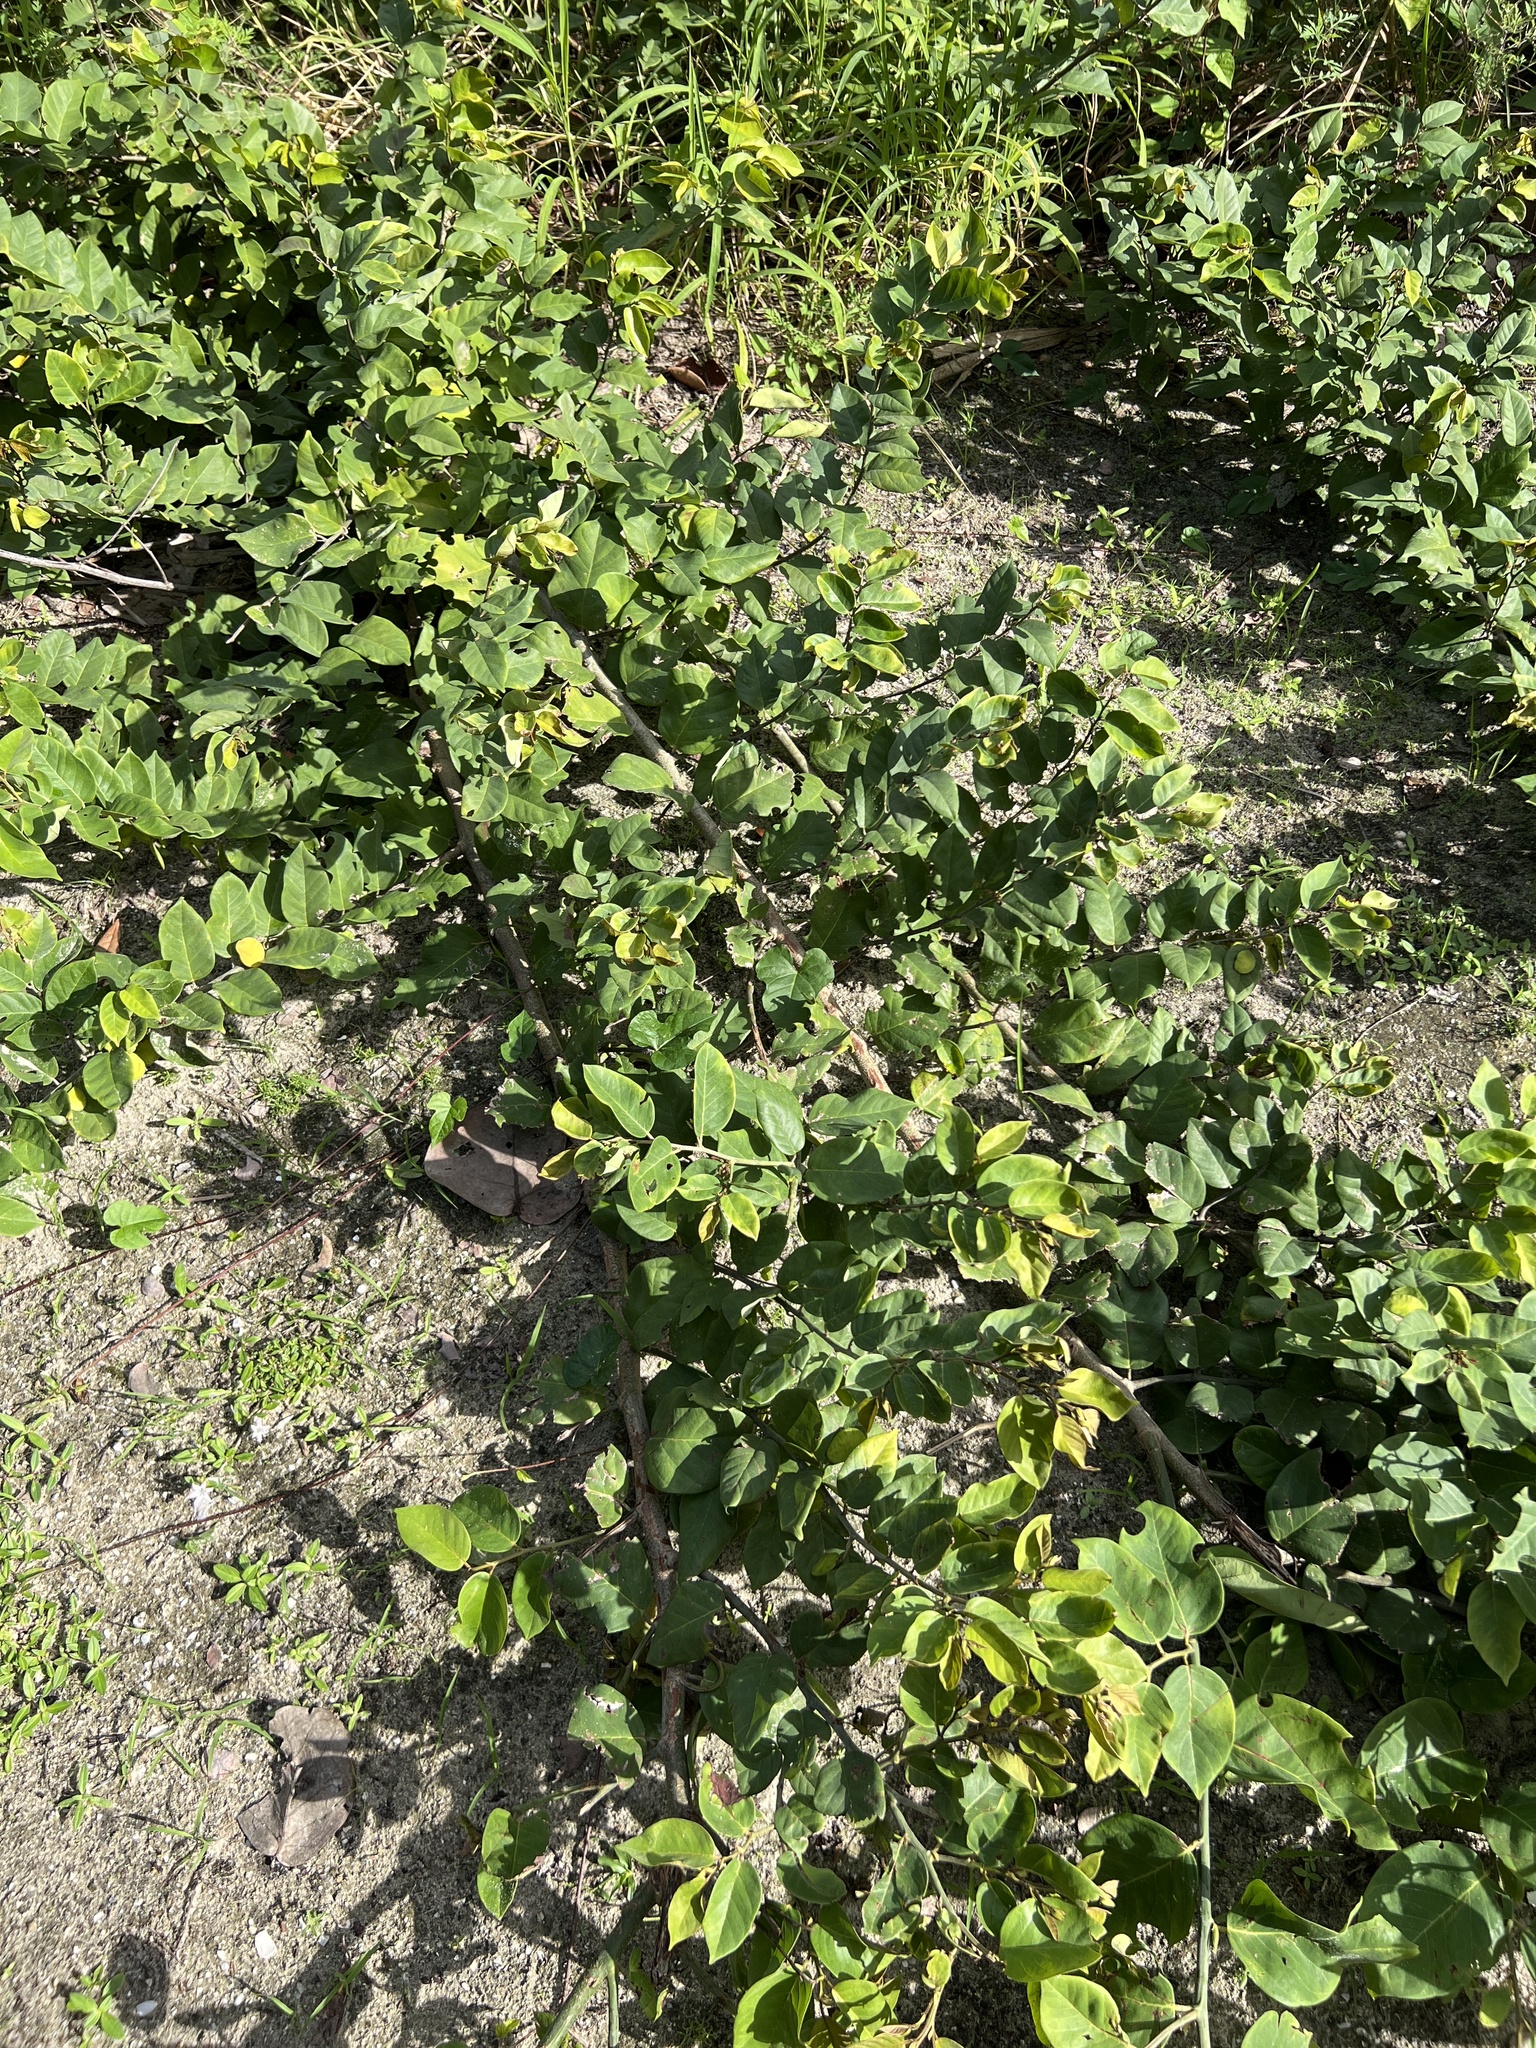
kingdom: Plantae
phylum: Tracheophyta
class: Magnoliopsida
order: Fabales
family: Fabaceae
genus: Dalbergia
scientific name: Dalbergia ecastaphyllum
